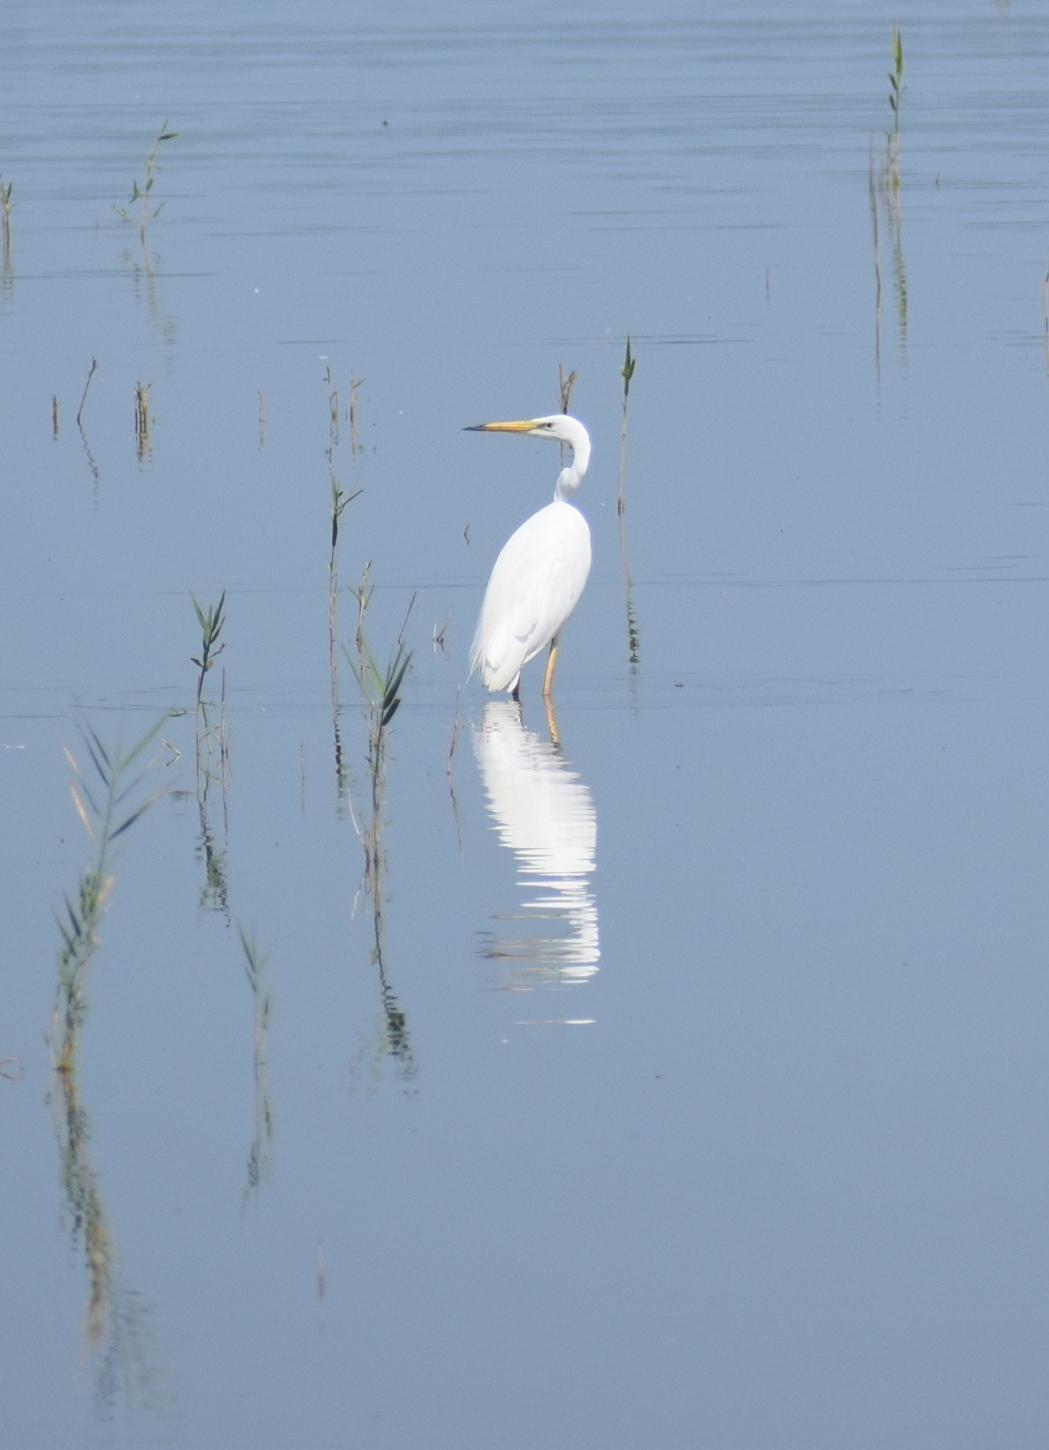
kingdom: Animalia
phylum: Chordata
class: Aves
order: Pelecaniformes
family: Ardeidae
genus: Ardea
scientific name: Ardea alba
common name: Great egret
